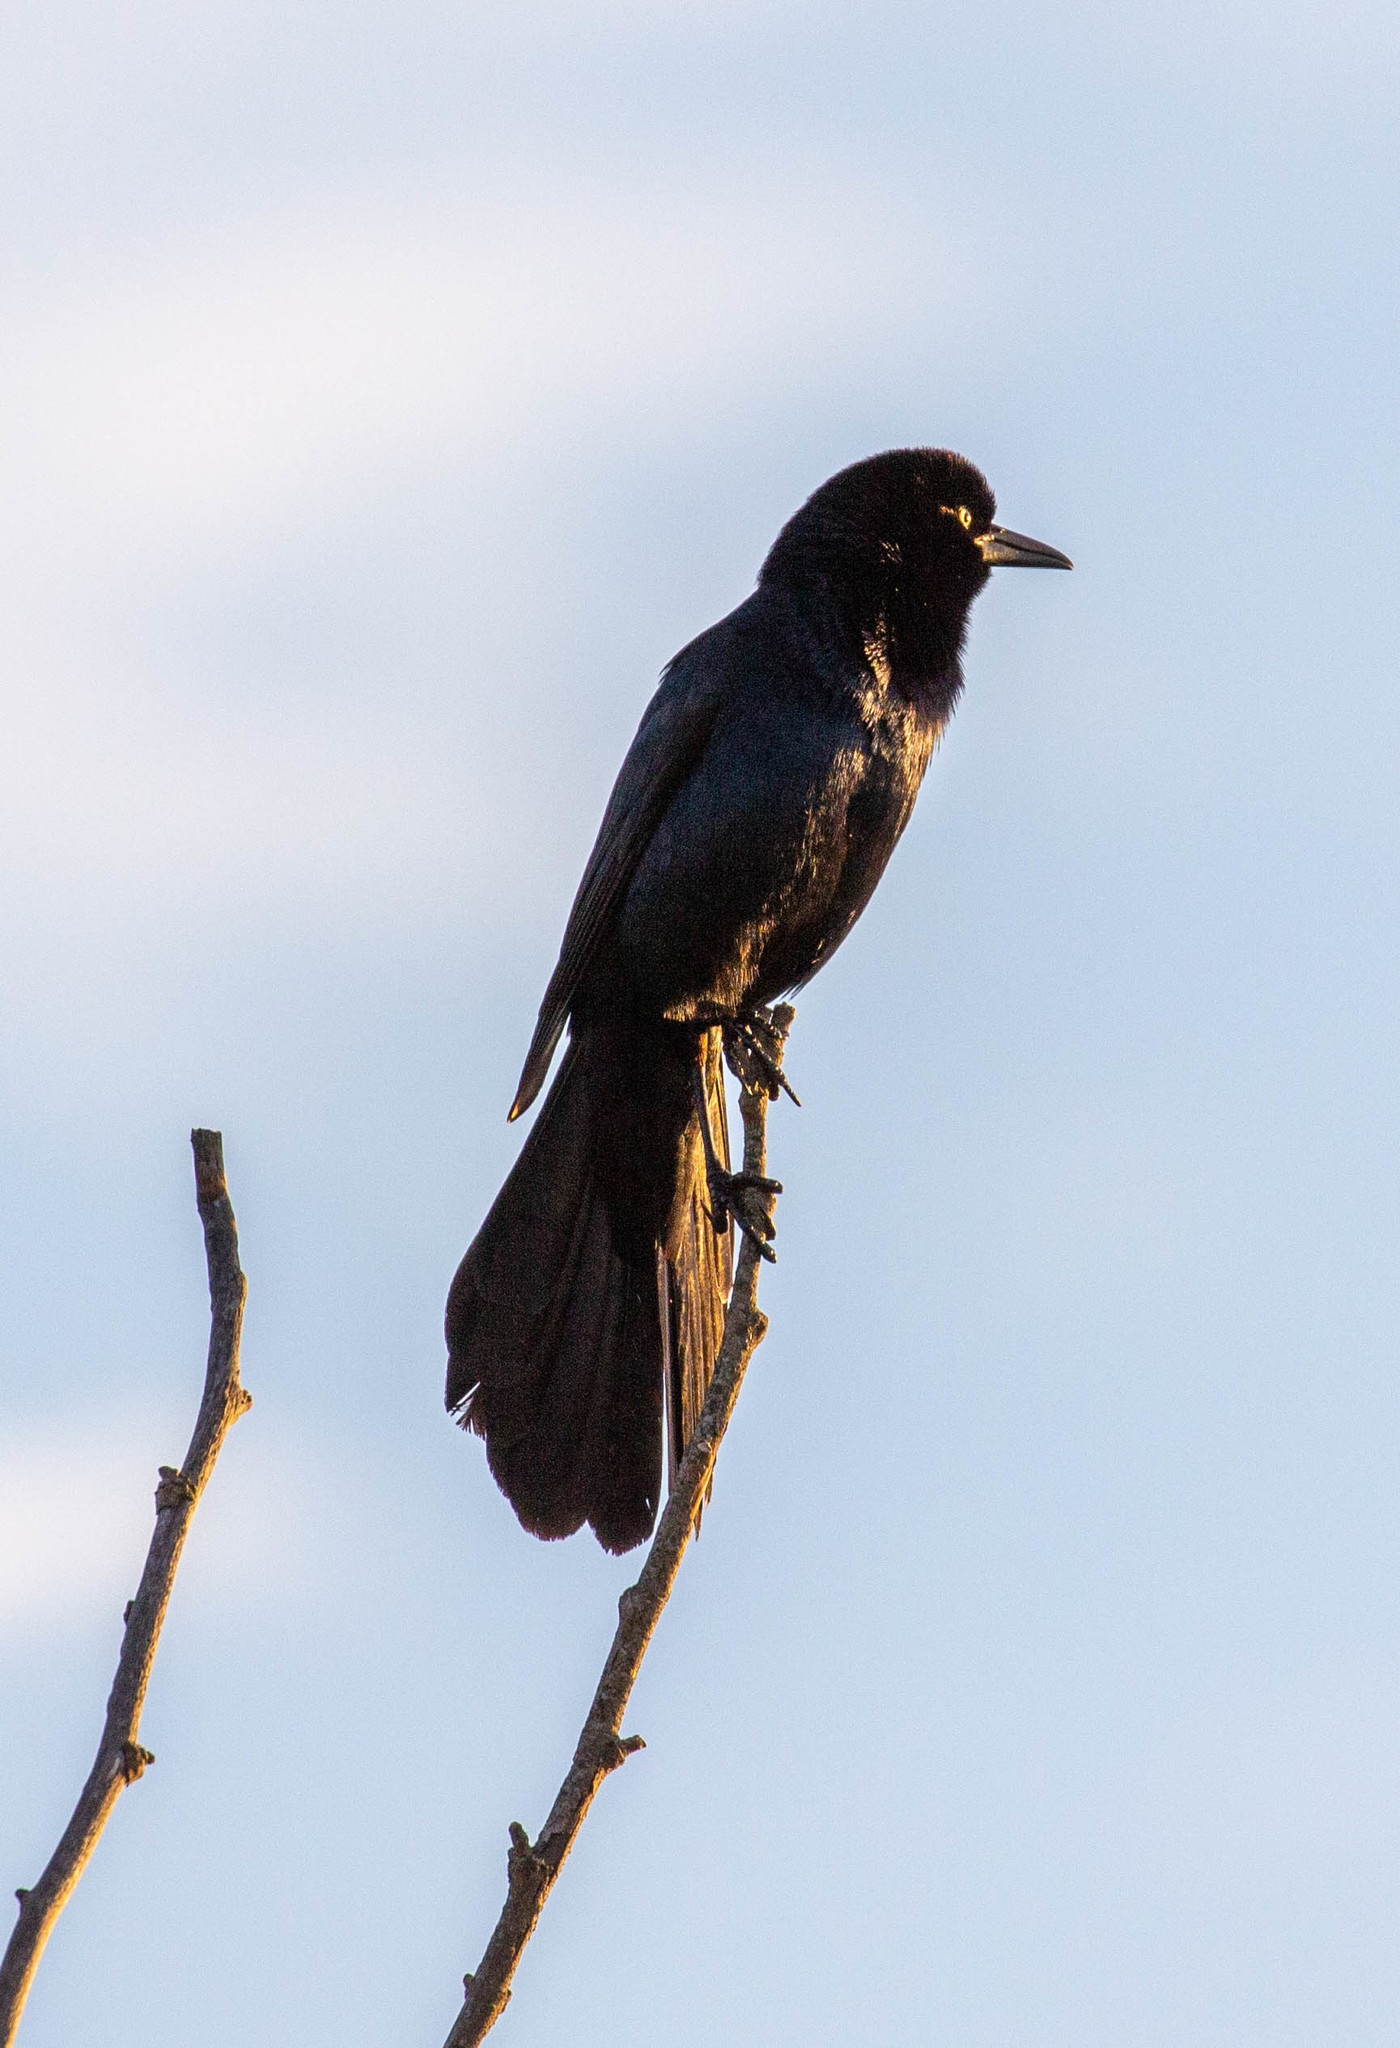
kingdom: Animalia
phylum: Chordata
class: Aves
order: Passeriformes
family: Icteridae
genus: Quiscalus
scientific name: Quiscalus major
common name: Boat-tailed grackle
